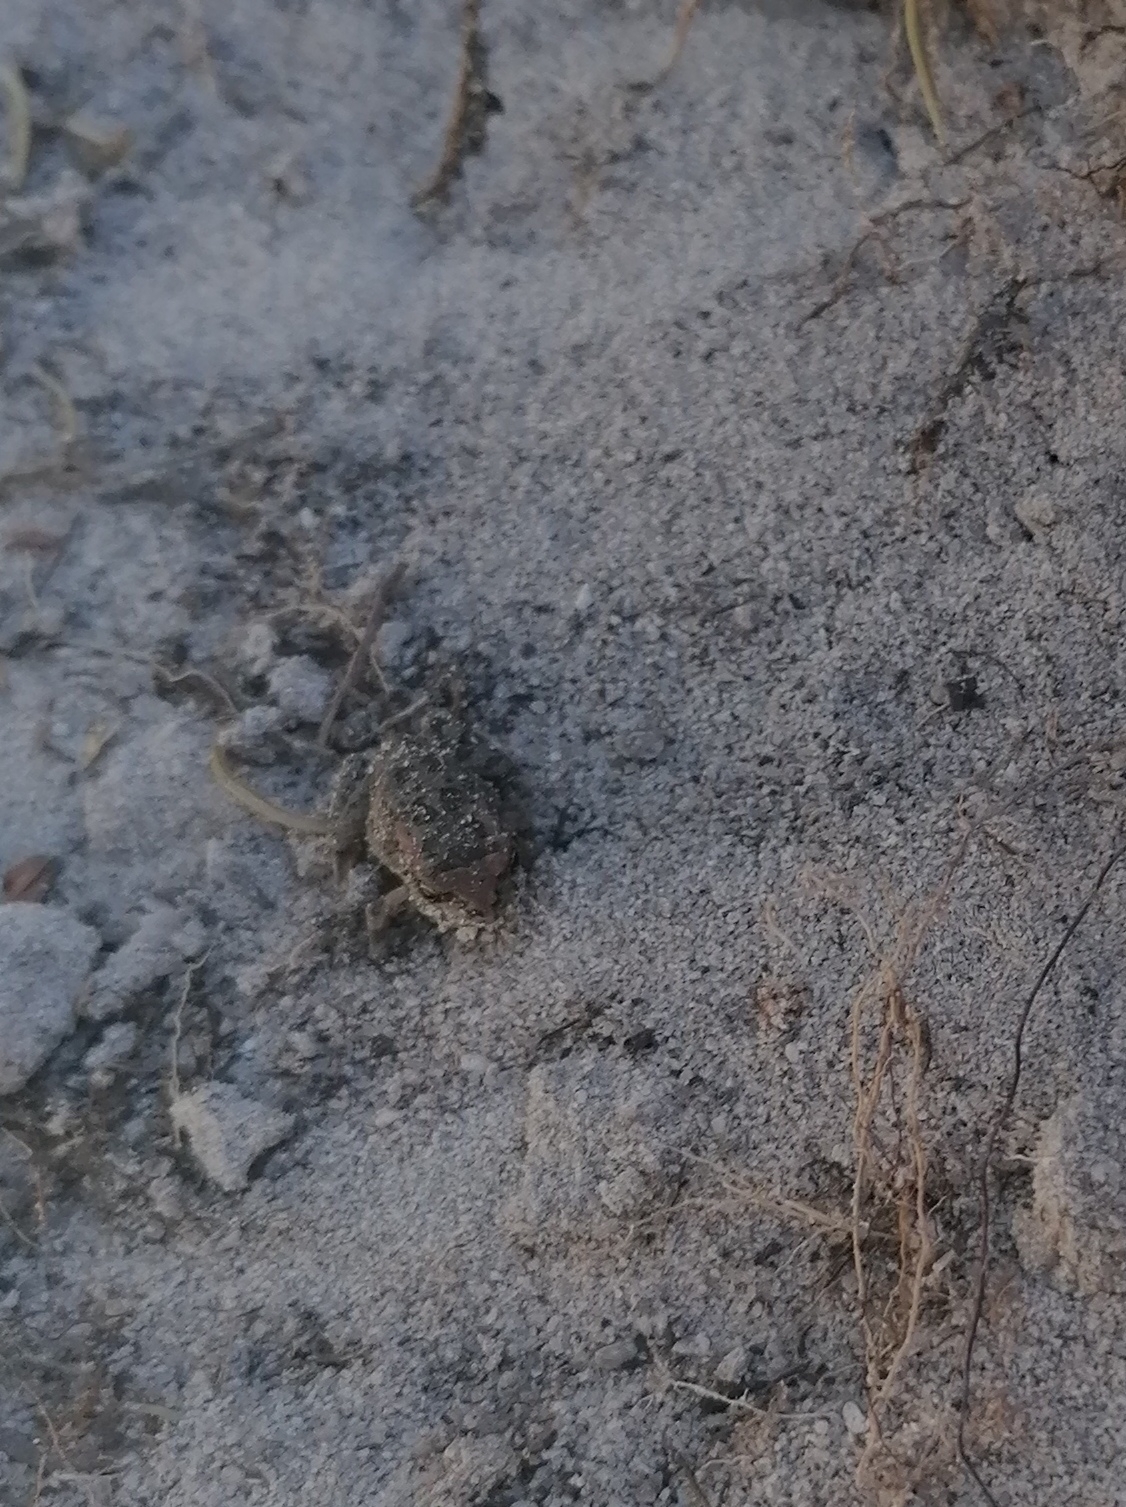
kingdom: Animalia
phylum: Chordata
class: Amphibia
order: Anura
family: Bufonidae
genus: Sclerophrys
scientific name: Sclerophrys capensis
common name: Ranger’s toad
